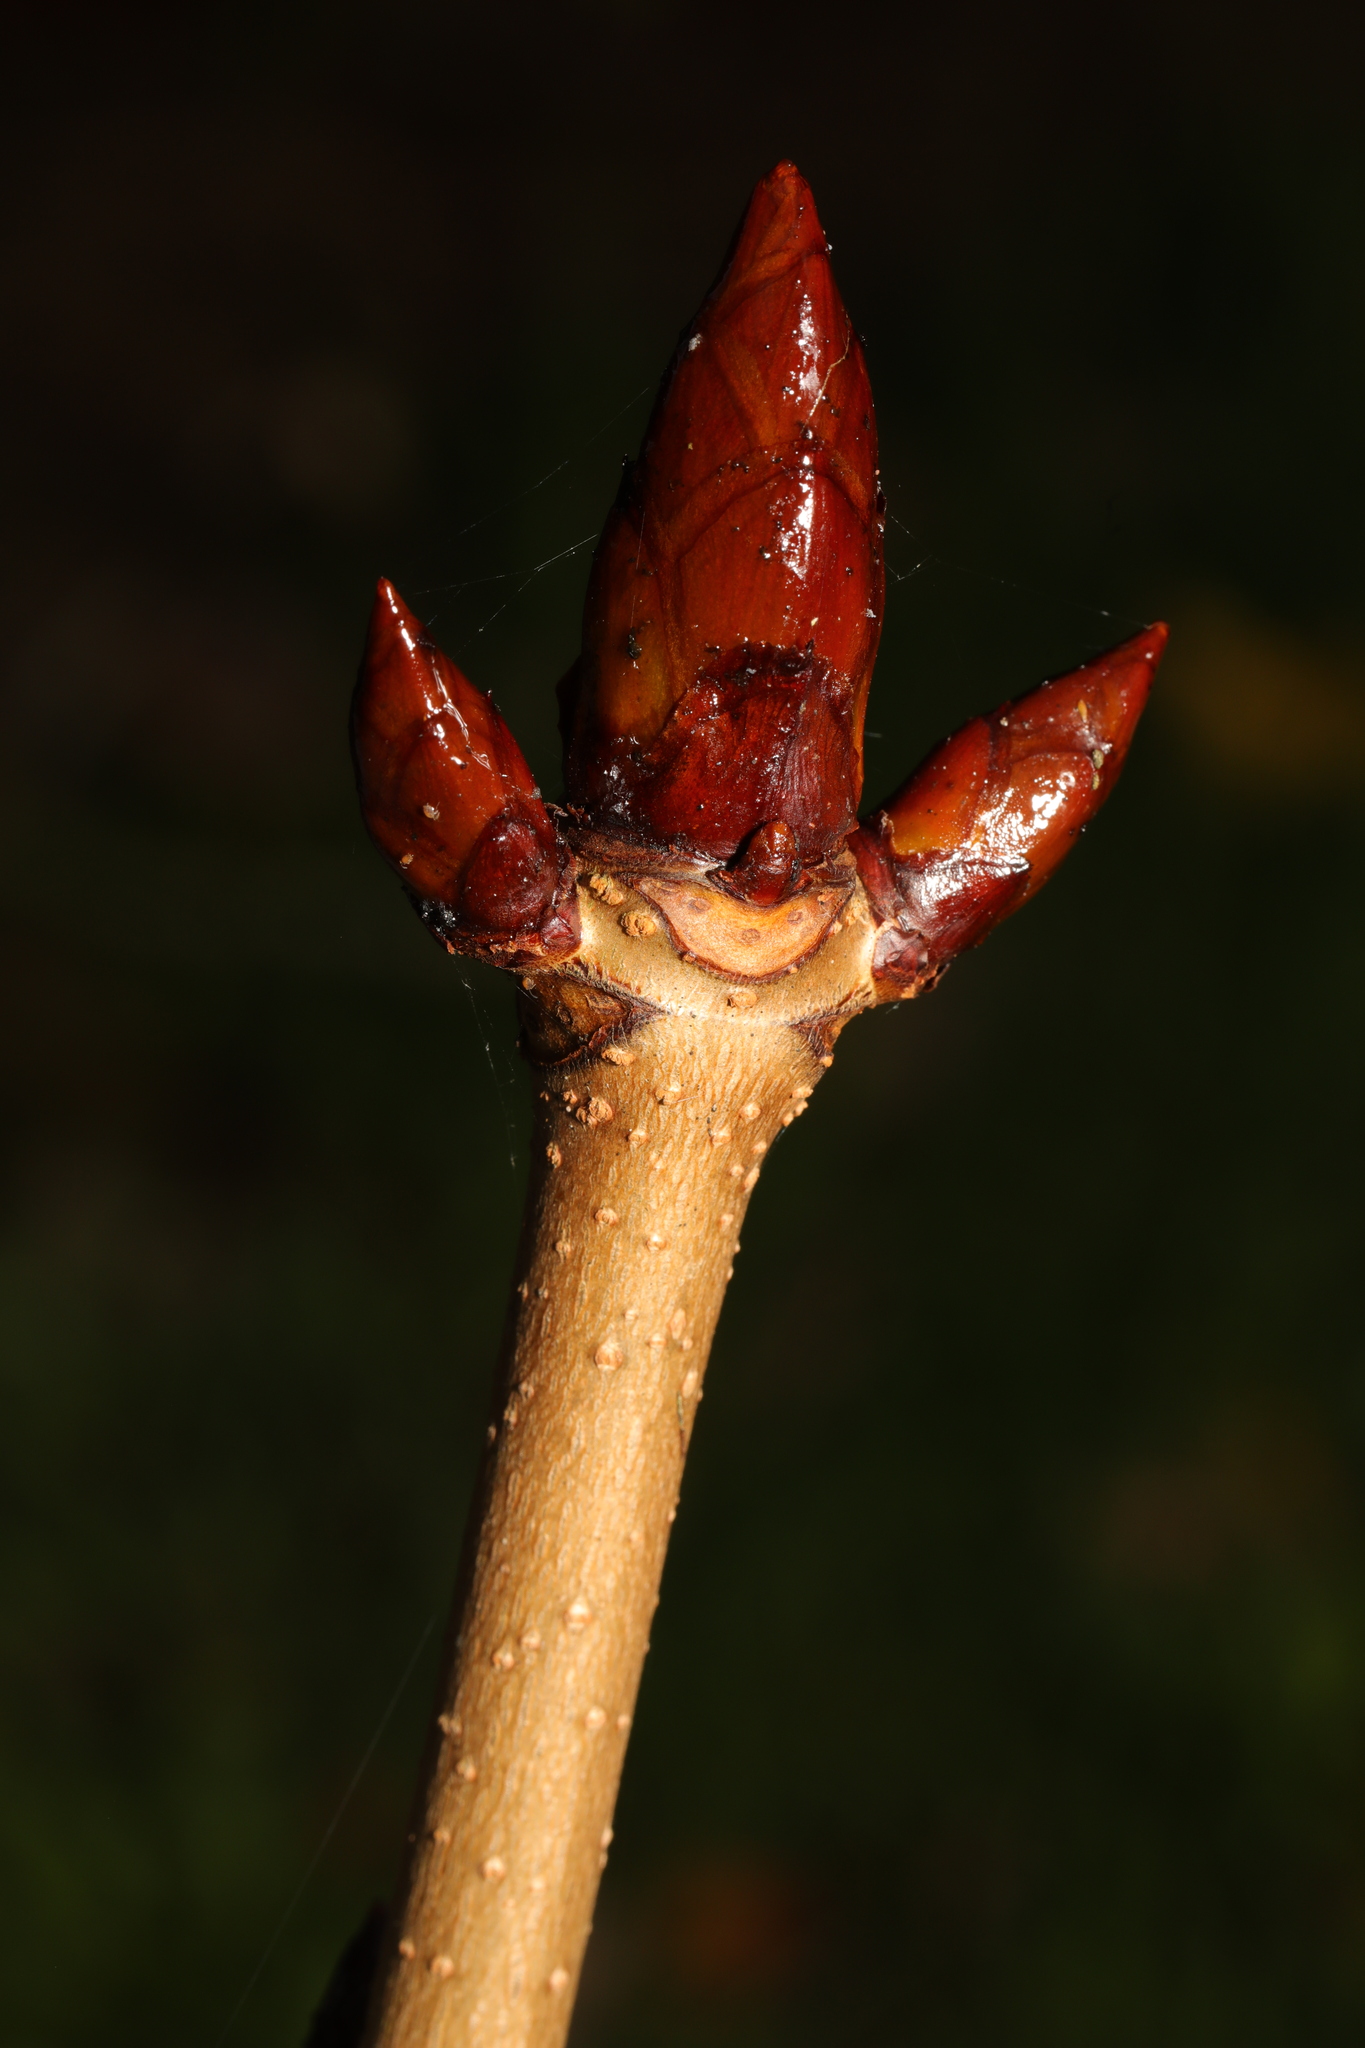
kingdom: Plantae
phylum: Tracheophyta
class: Magnoliopsida
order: Sapindales
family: Sapindaceae
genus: Aesculus
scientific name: Aesculus hippocastanum
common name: Horse-chestnut
